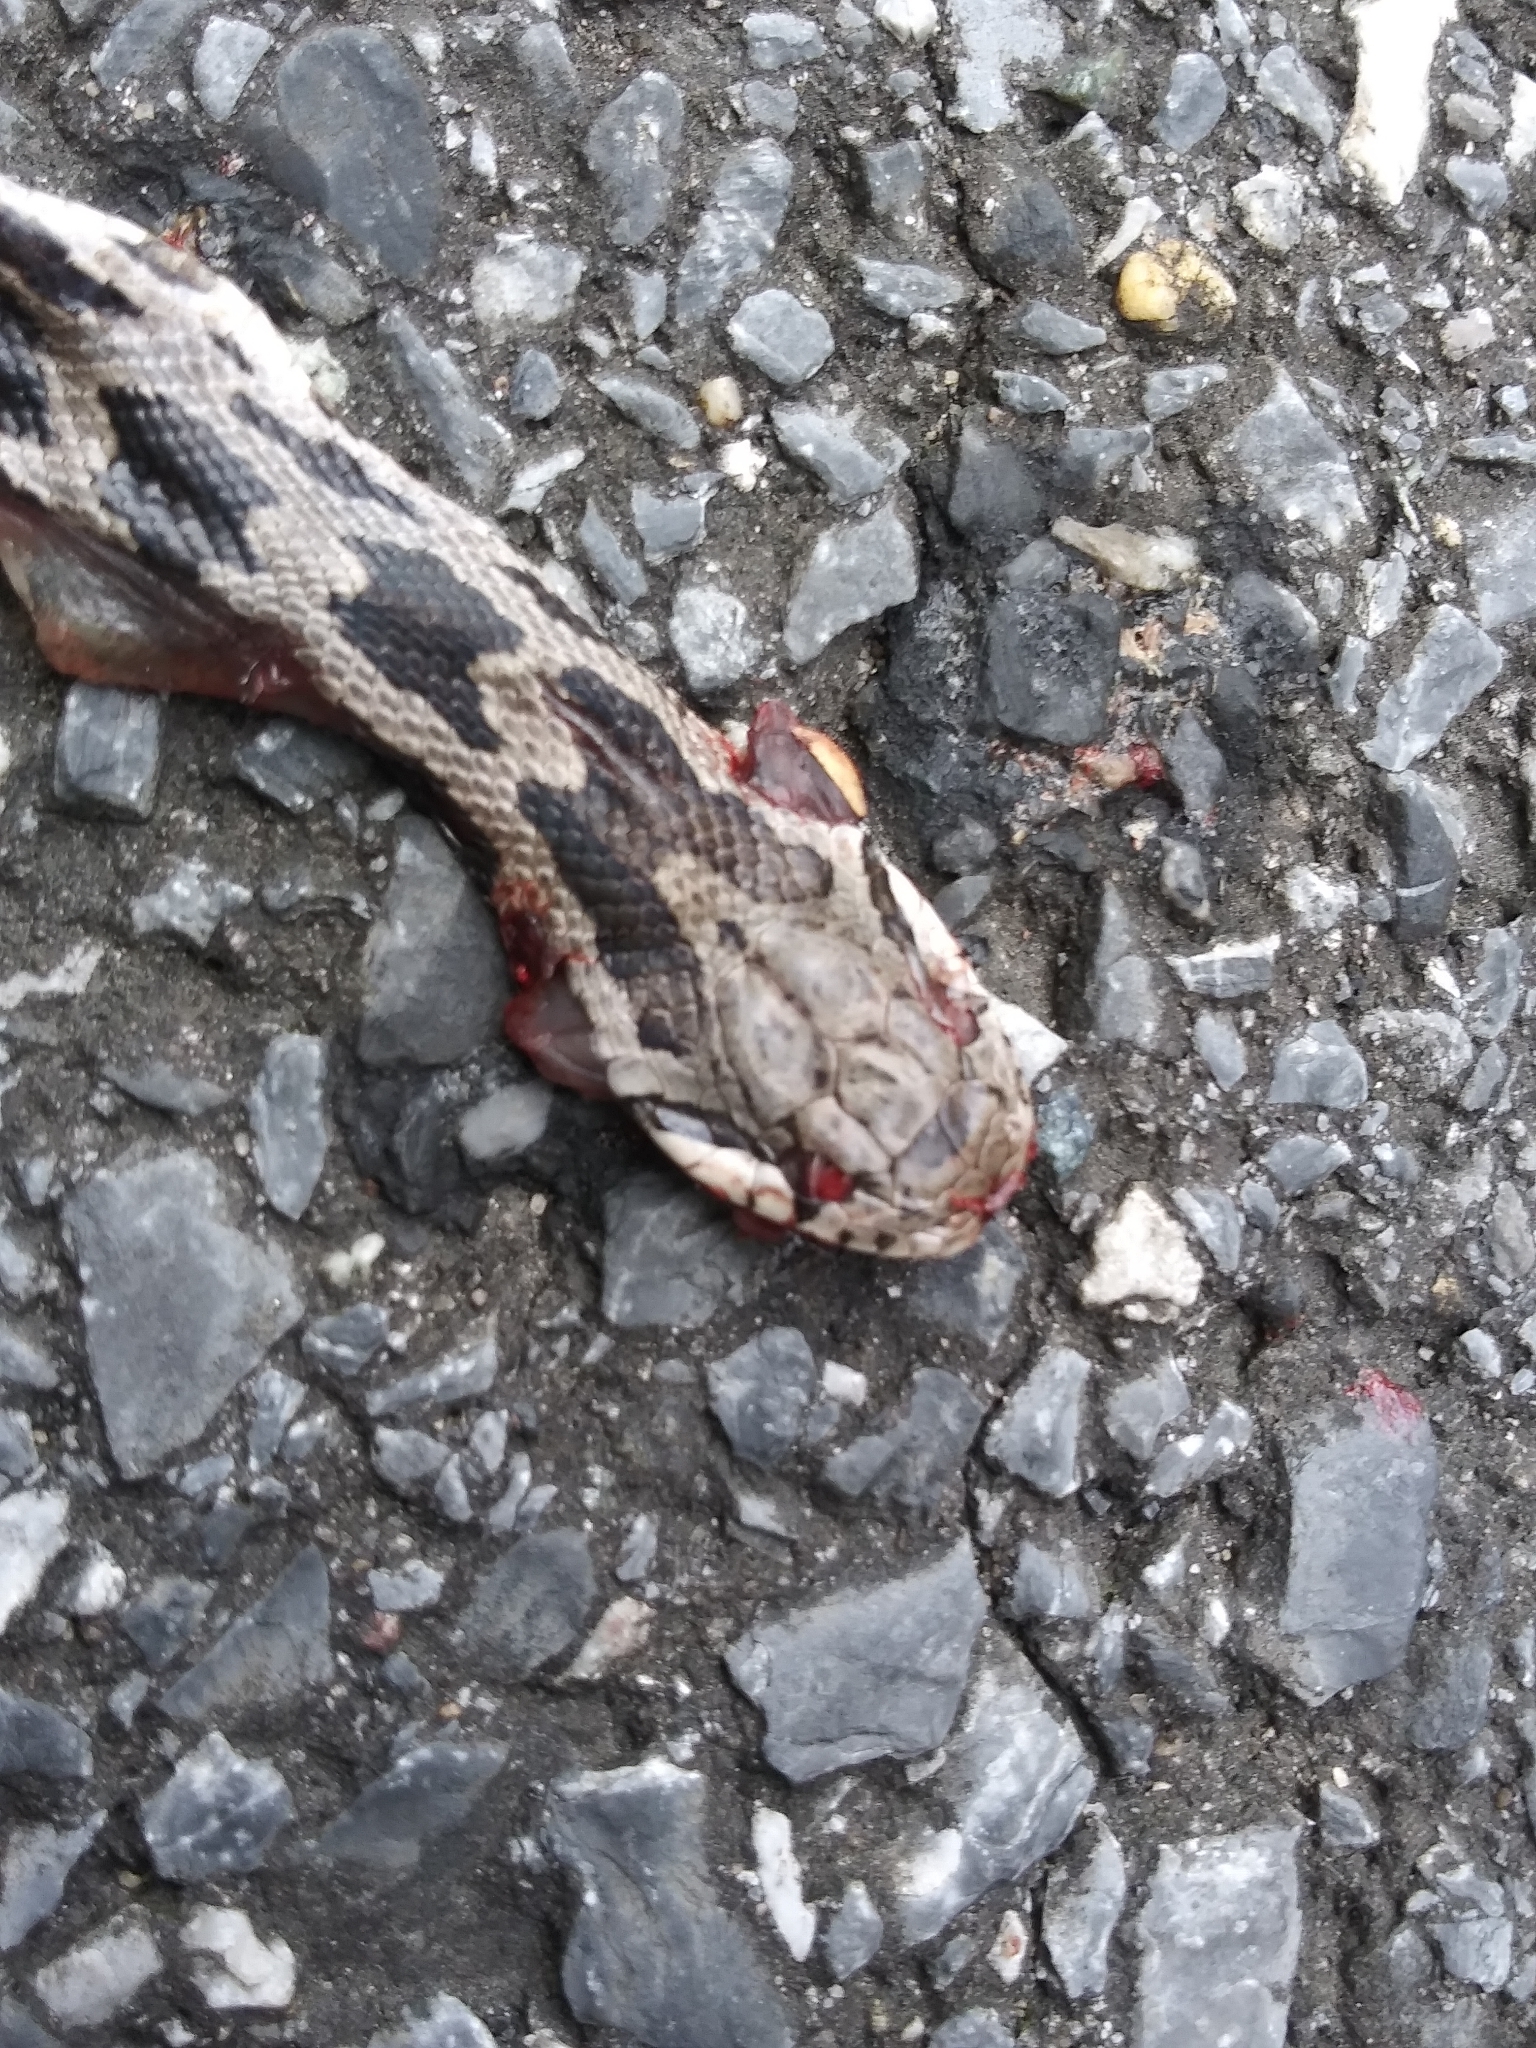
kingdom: Animalia
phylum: Chordata
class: Squamata
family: Colubridae
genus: Pantherophis
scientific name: Pantherophis
